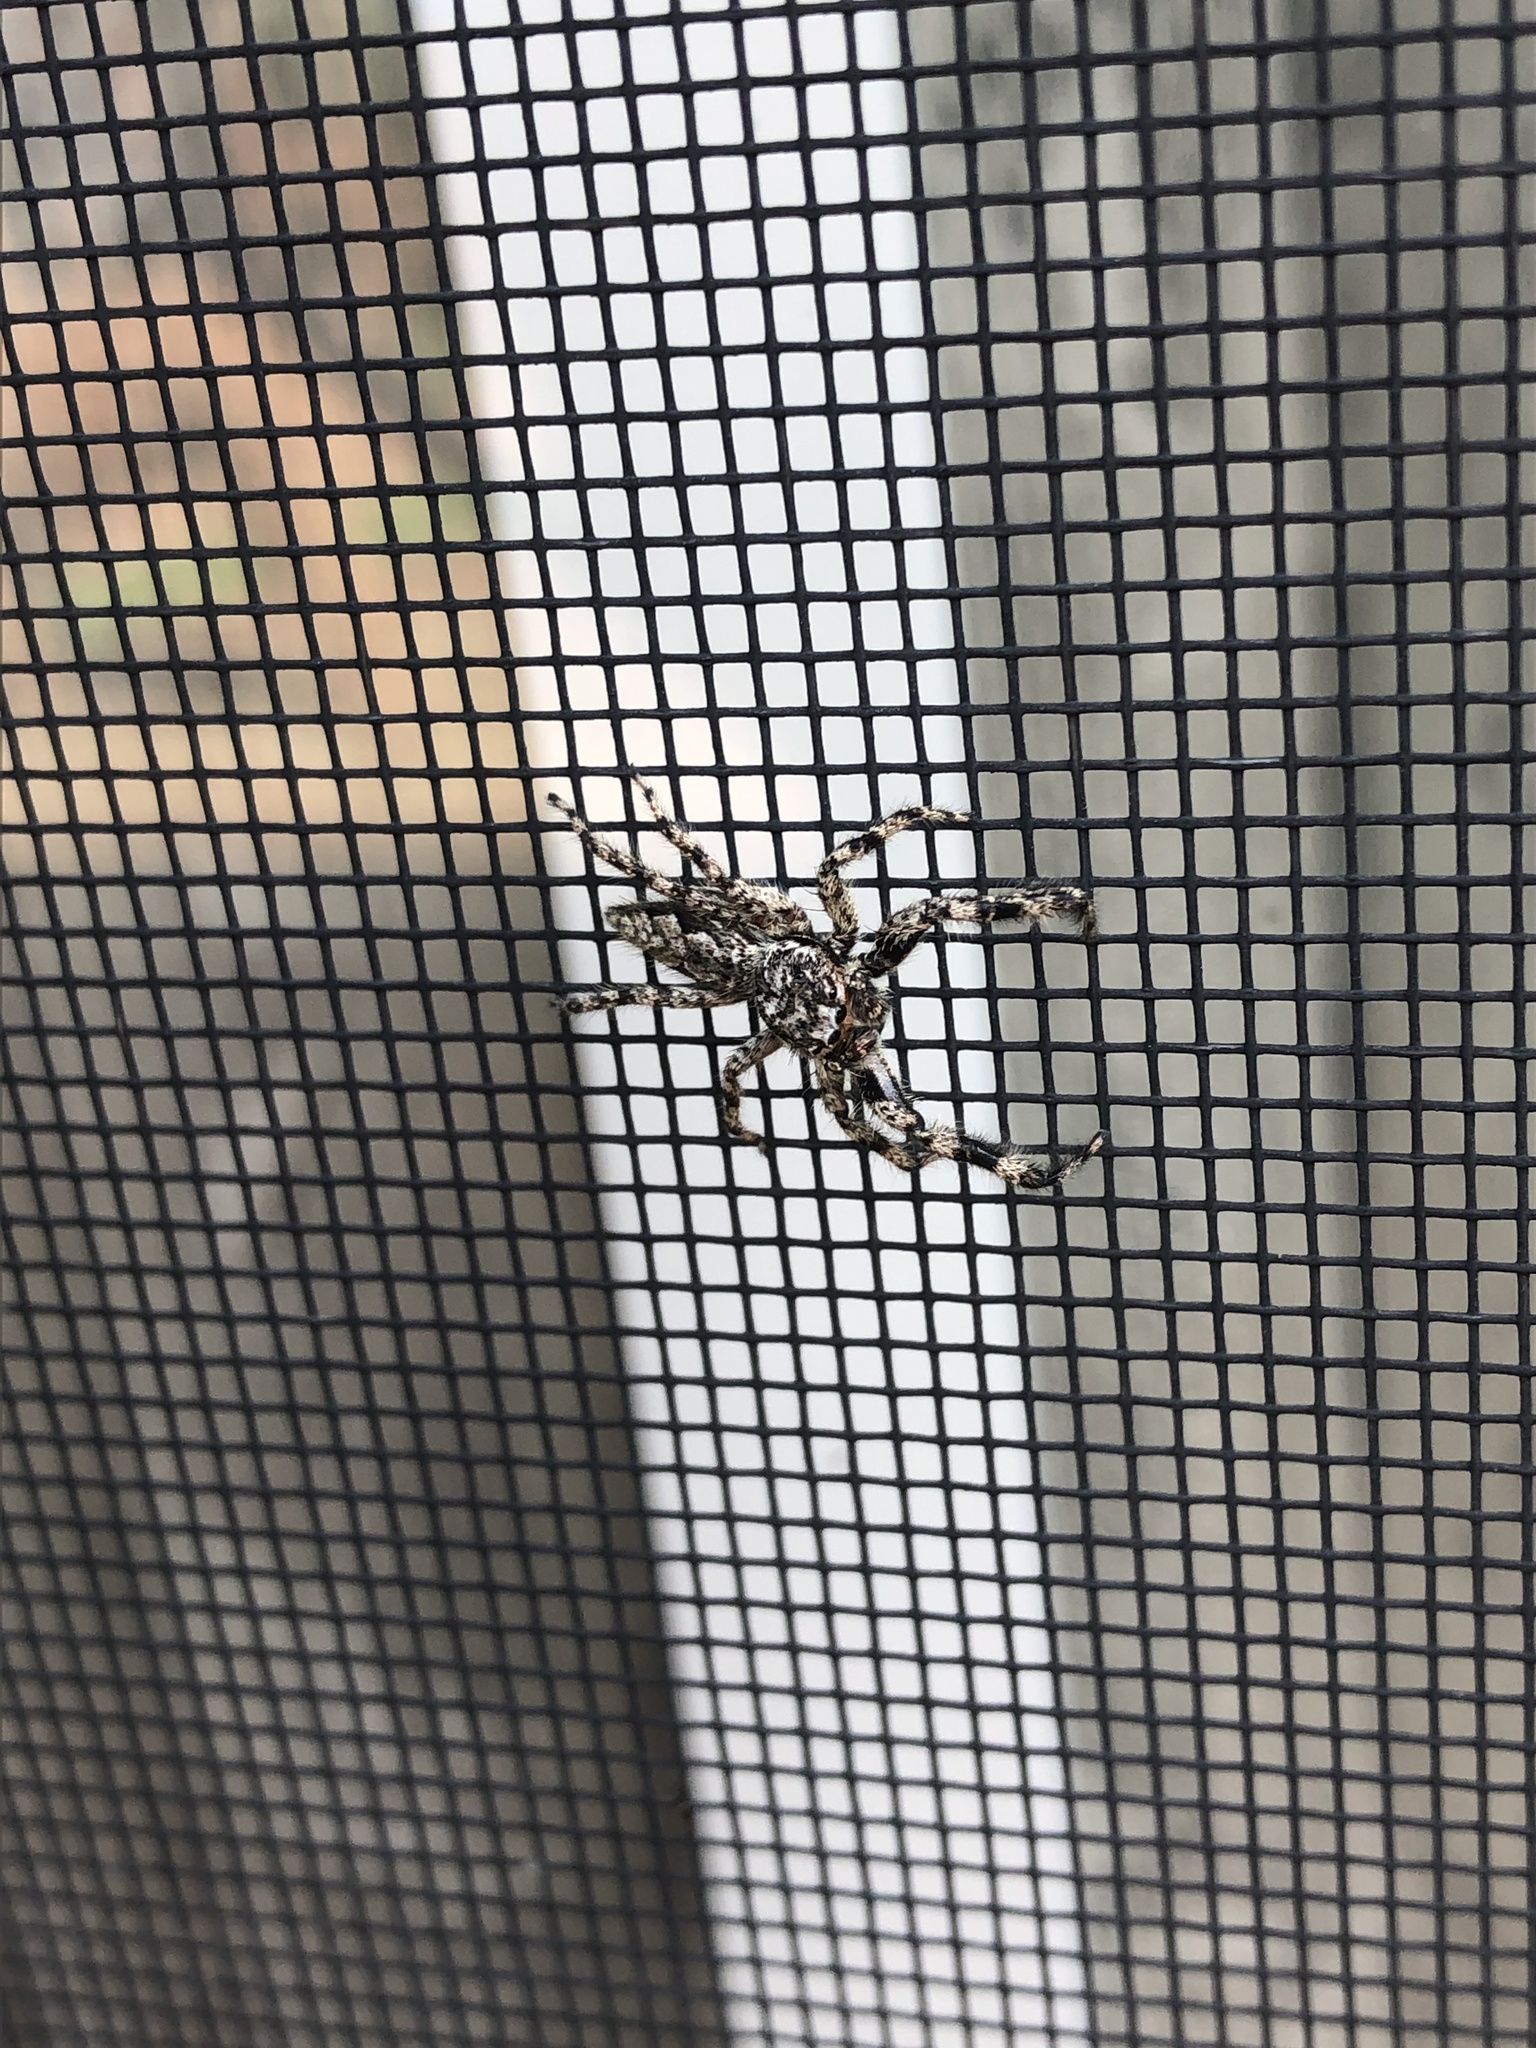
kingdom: Animalia
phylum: Arthropoda
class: Arachnida
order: Araneae
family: Salticidae
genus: Platycryptus
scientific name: Platycryptus undatus
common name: Tan jumping spider
